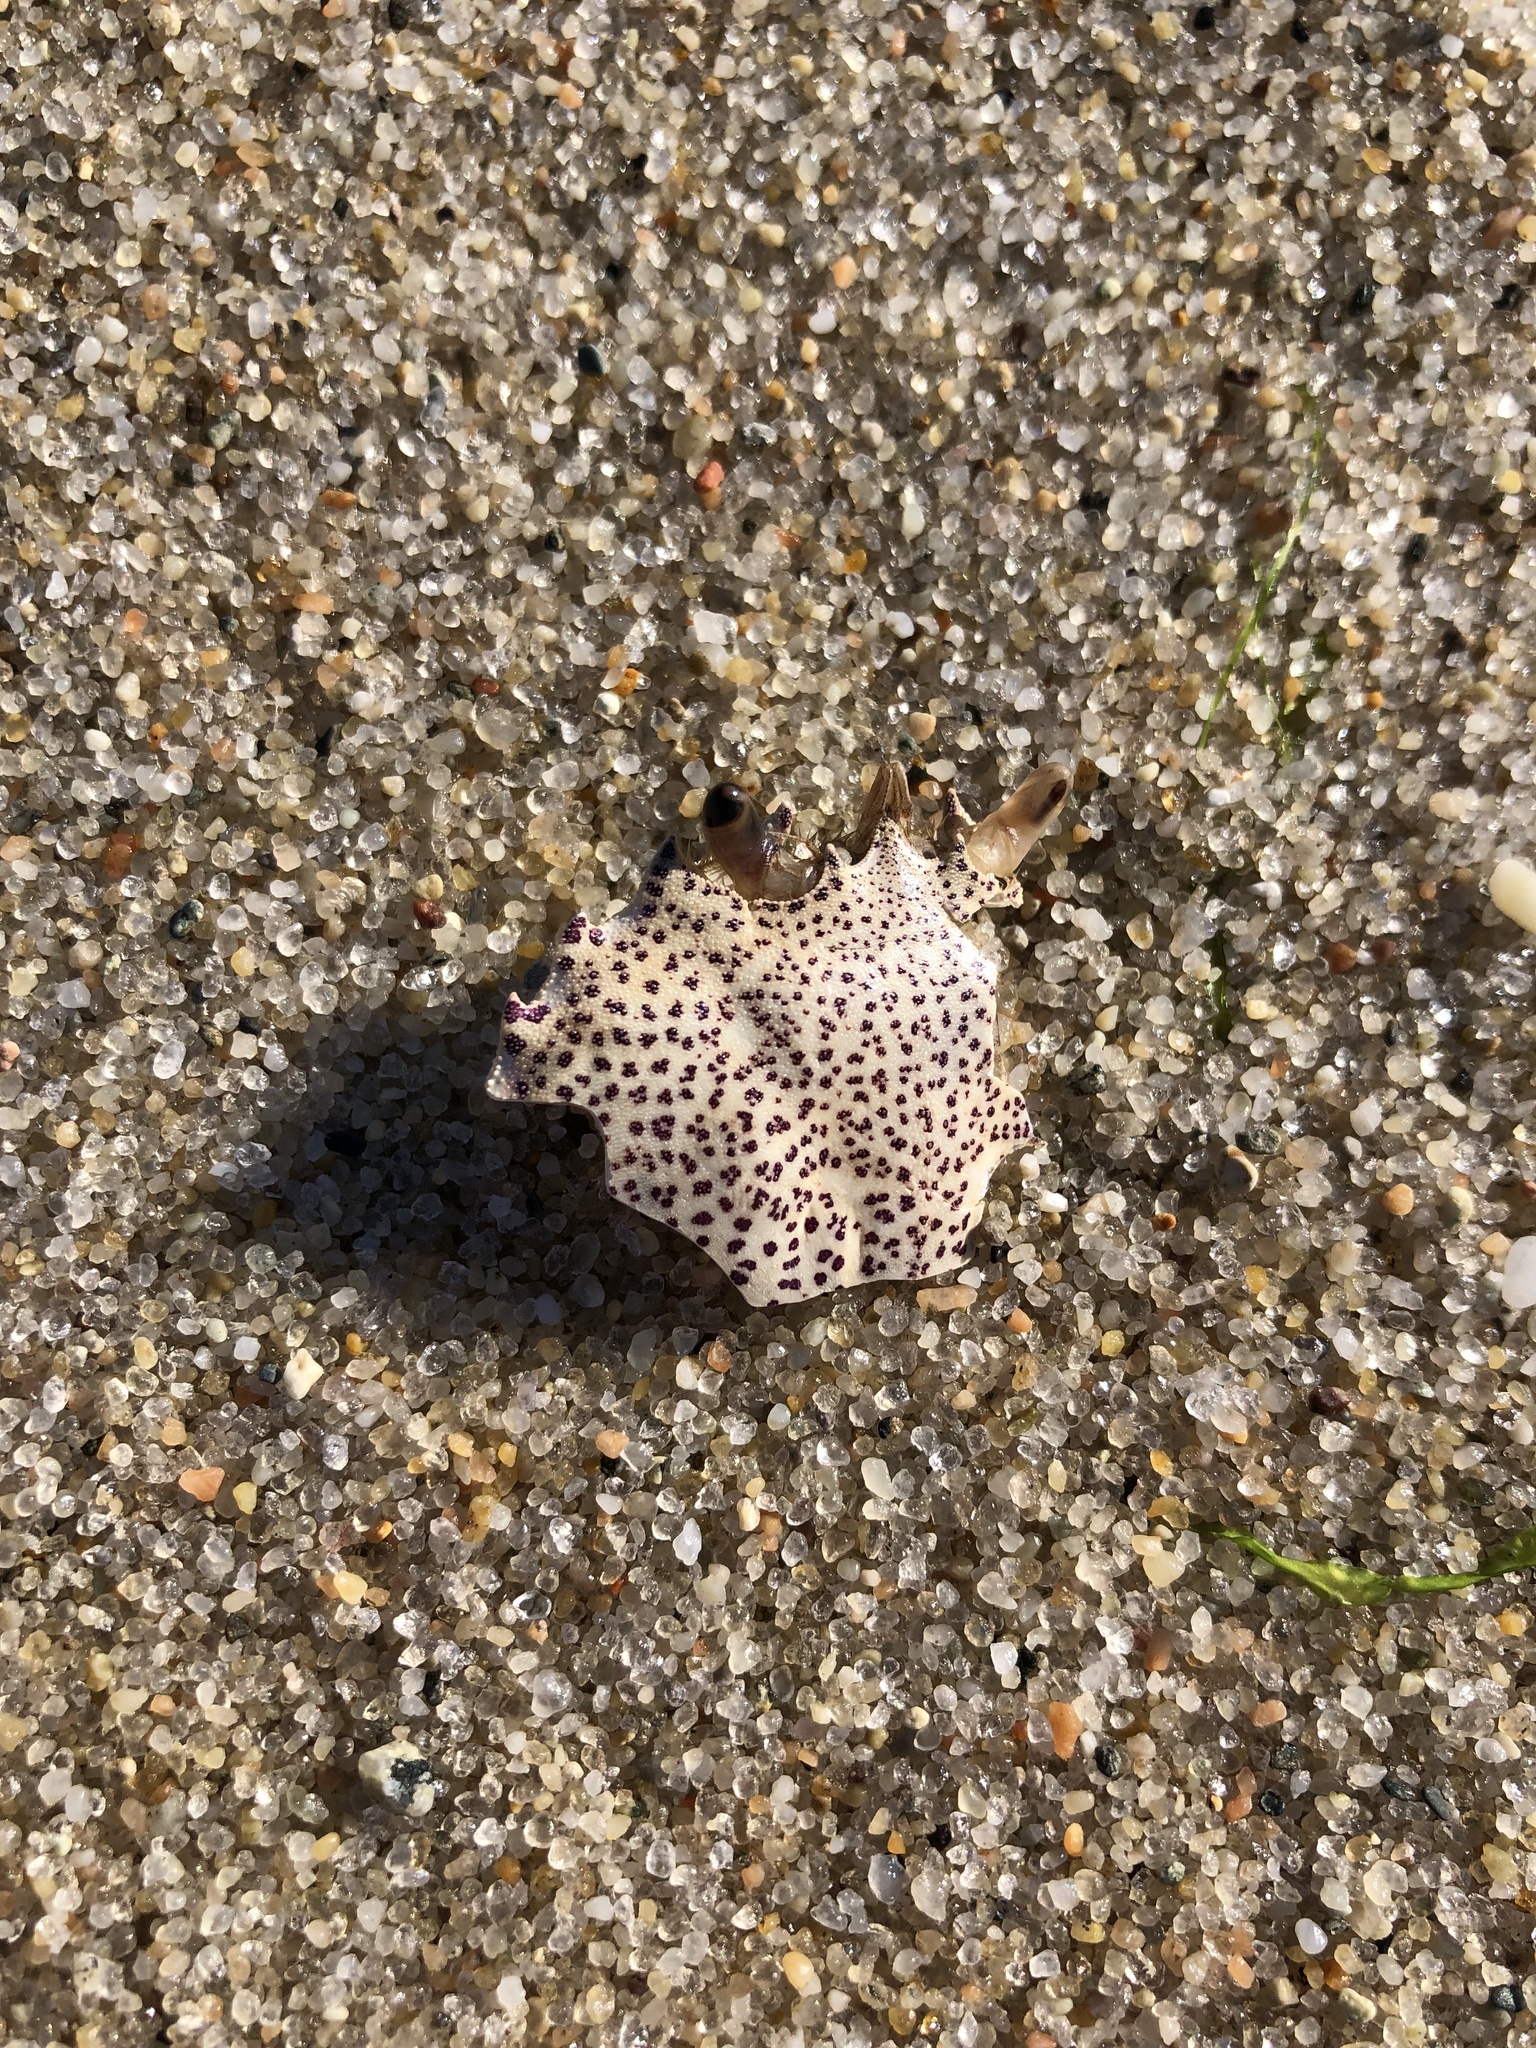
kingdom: Animalia
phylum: Arthropoda
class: Malacostraca
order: Decapoda
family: Ovalipidae
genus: Ovalipes
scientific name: Ovalipes ocellatus
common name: Lady crab
